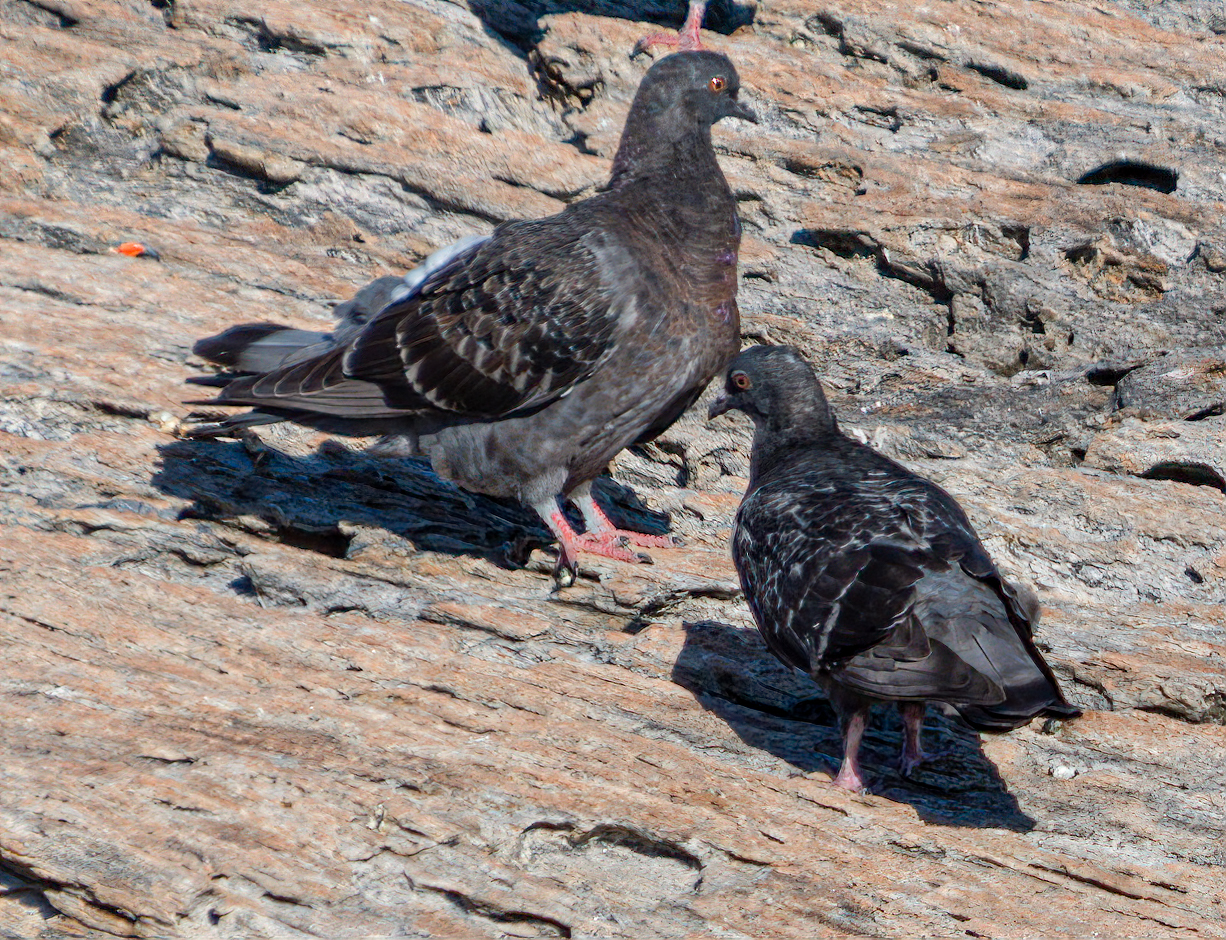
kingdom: Animalia
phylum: Chordata
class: Aves
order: Columbiformes
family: Columbidae
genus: Columba
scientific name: Columba livia
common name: Rock pigeon
